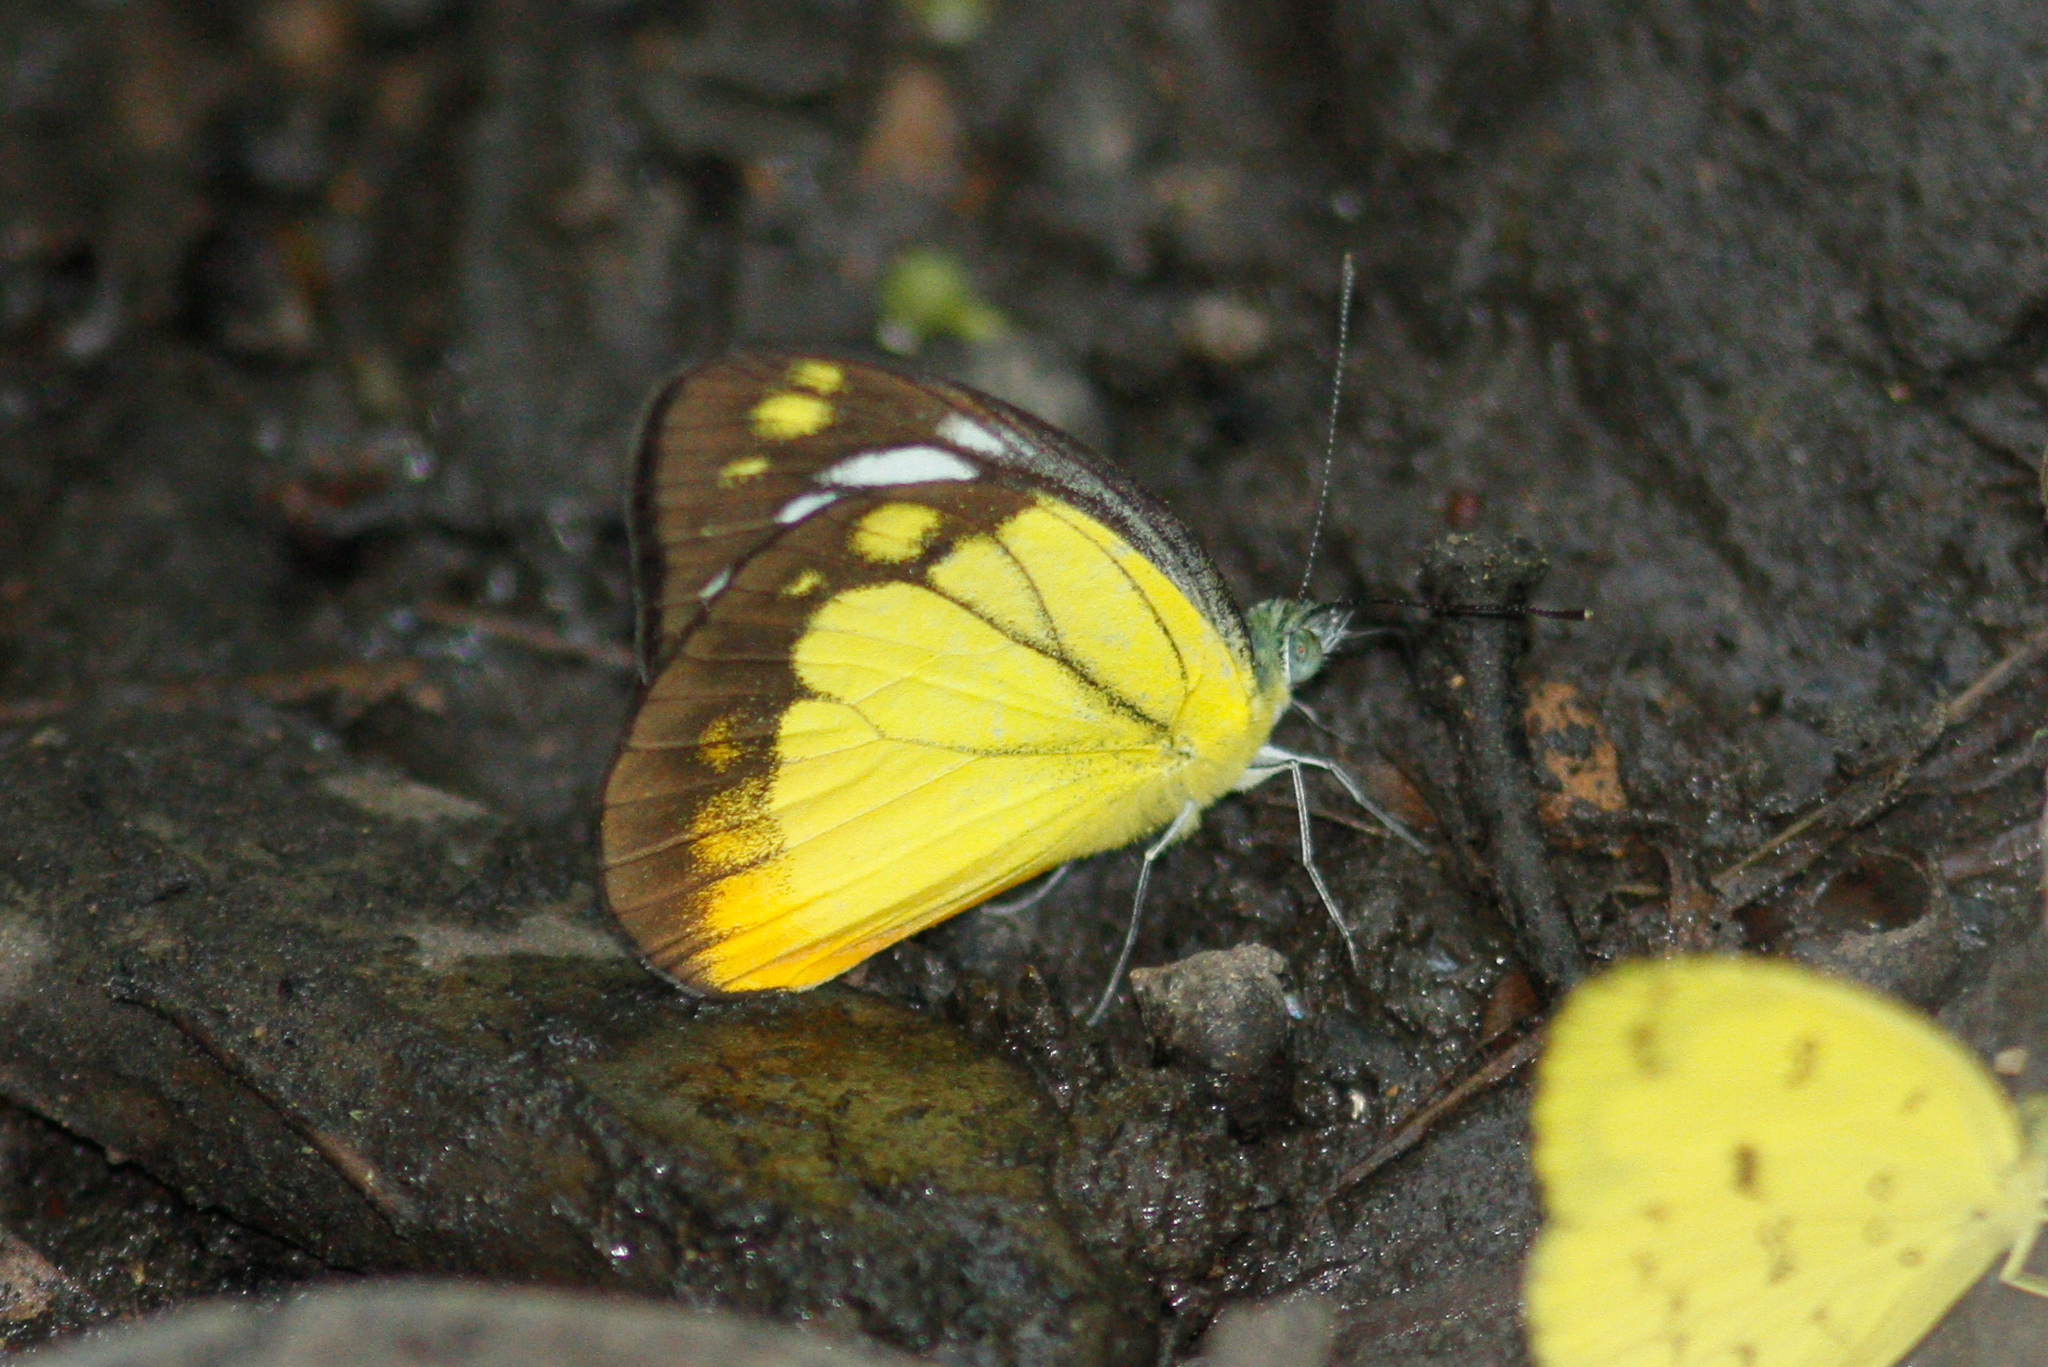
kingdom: Animalia
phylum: Arthropoda
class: Insecta
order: Lepidoptera
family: Pieridae
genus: Cepora
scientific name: Cepora iudith
